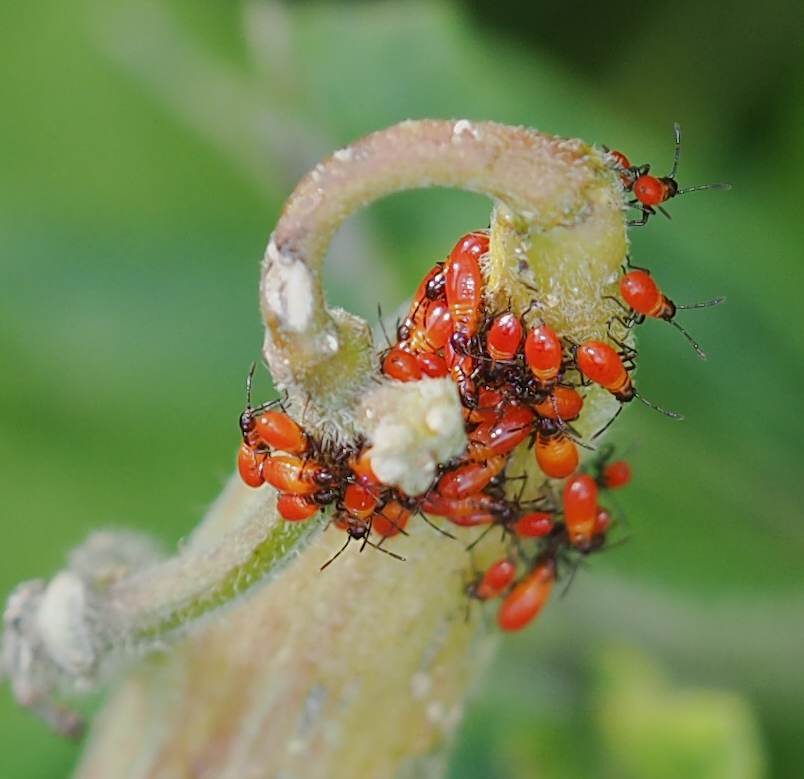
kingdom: Animalia
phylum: Arthropoda
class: Insecta
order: Hemiptera
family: Lygaeidae
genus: Oncopeltus
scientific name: Oncopeltus fasciatus
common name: Large milkweed bug
